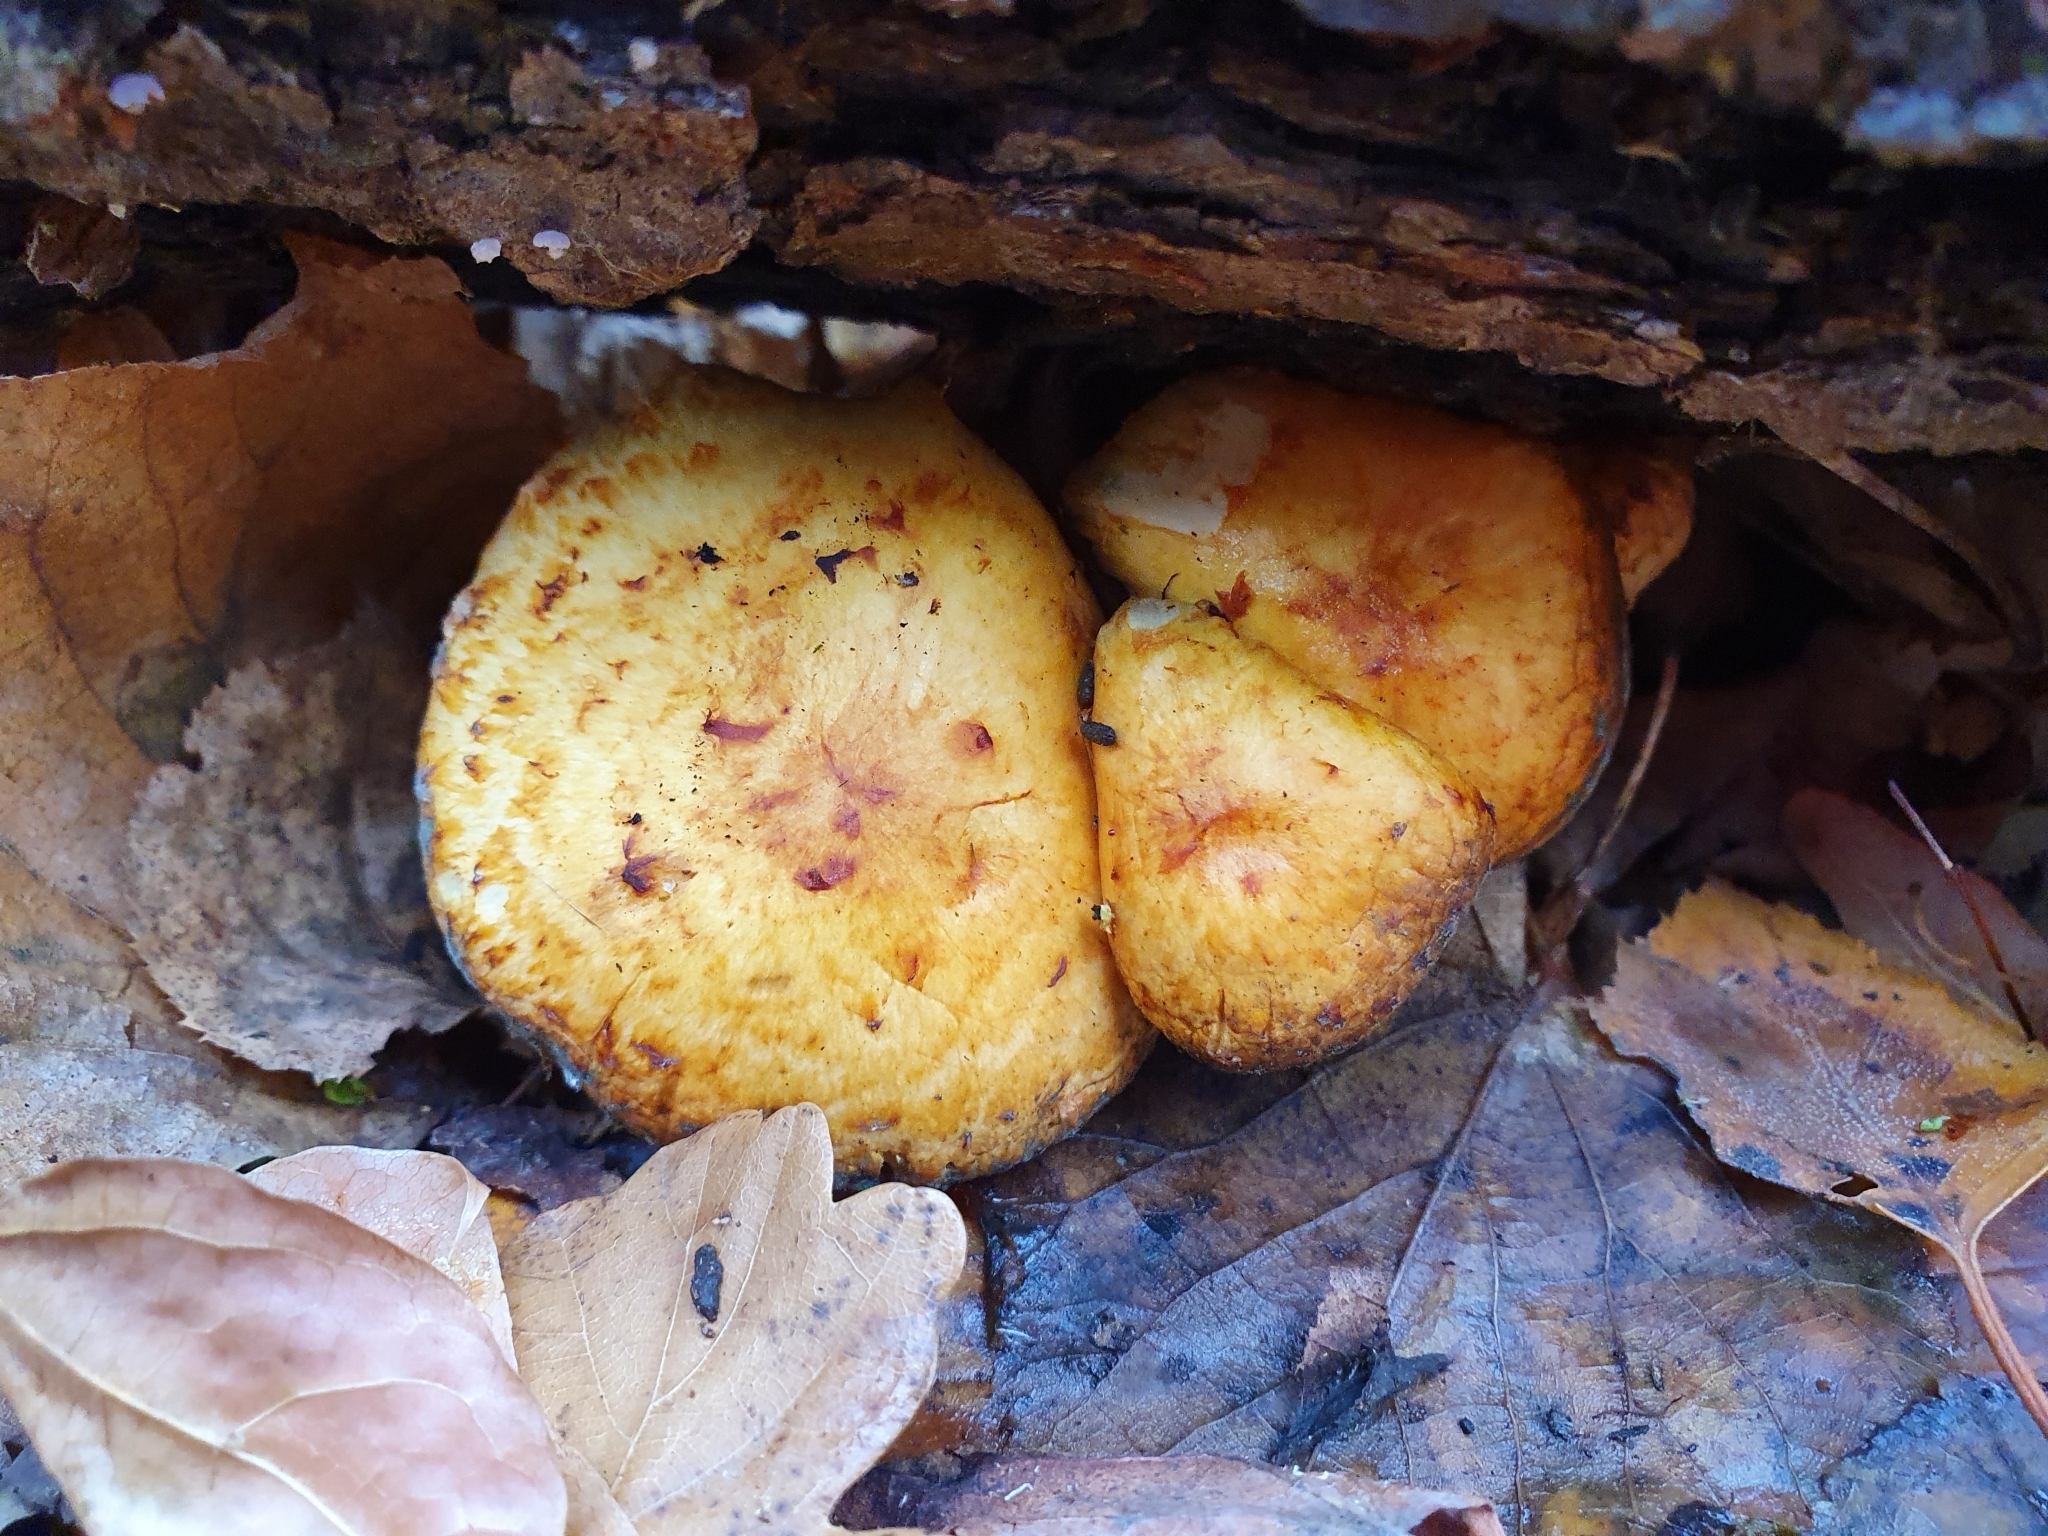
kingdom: Fungi
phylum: Basidiomycota
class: Agaricomycetes
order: Agaricales
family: Strophariaceae
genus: Pholiota
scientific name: Pholiota aurivella
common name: Golden scalycap
